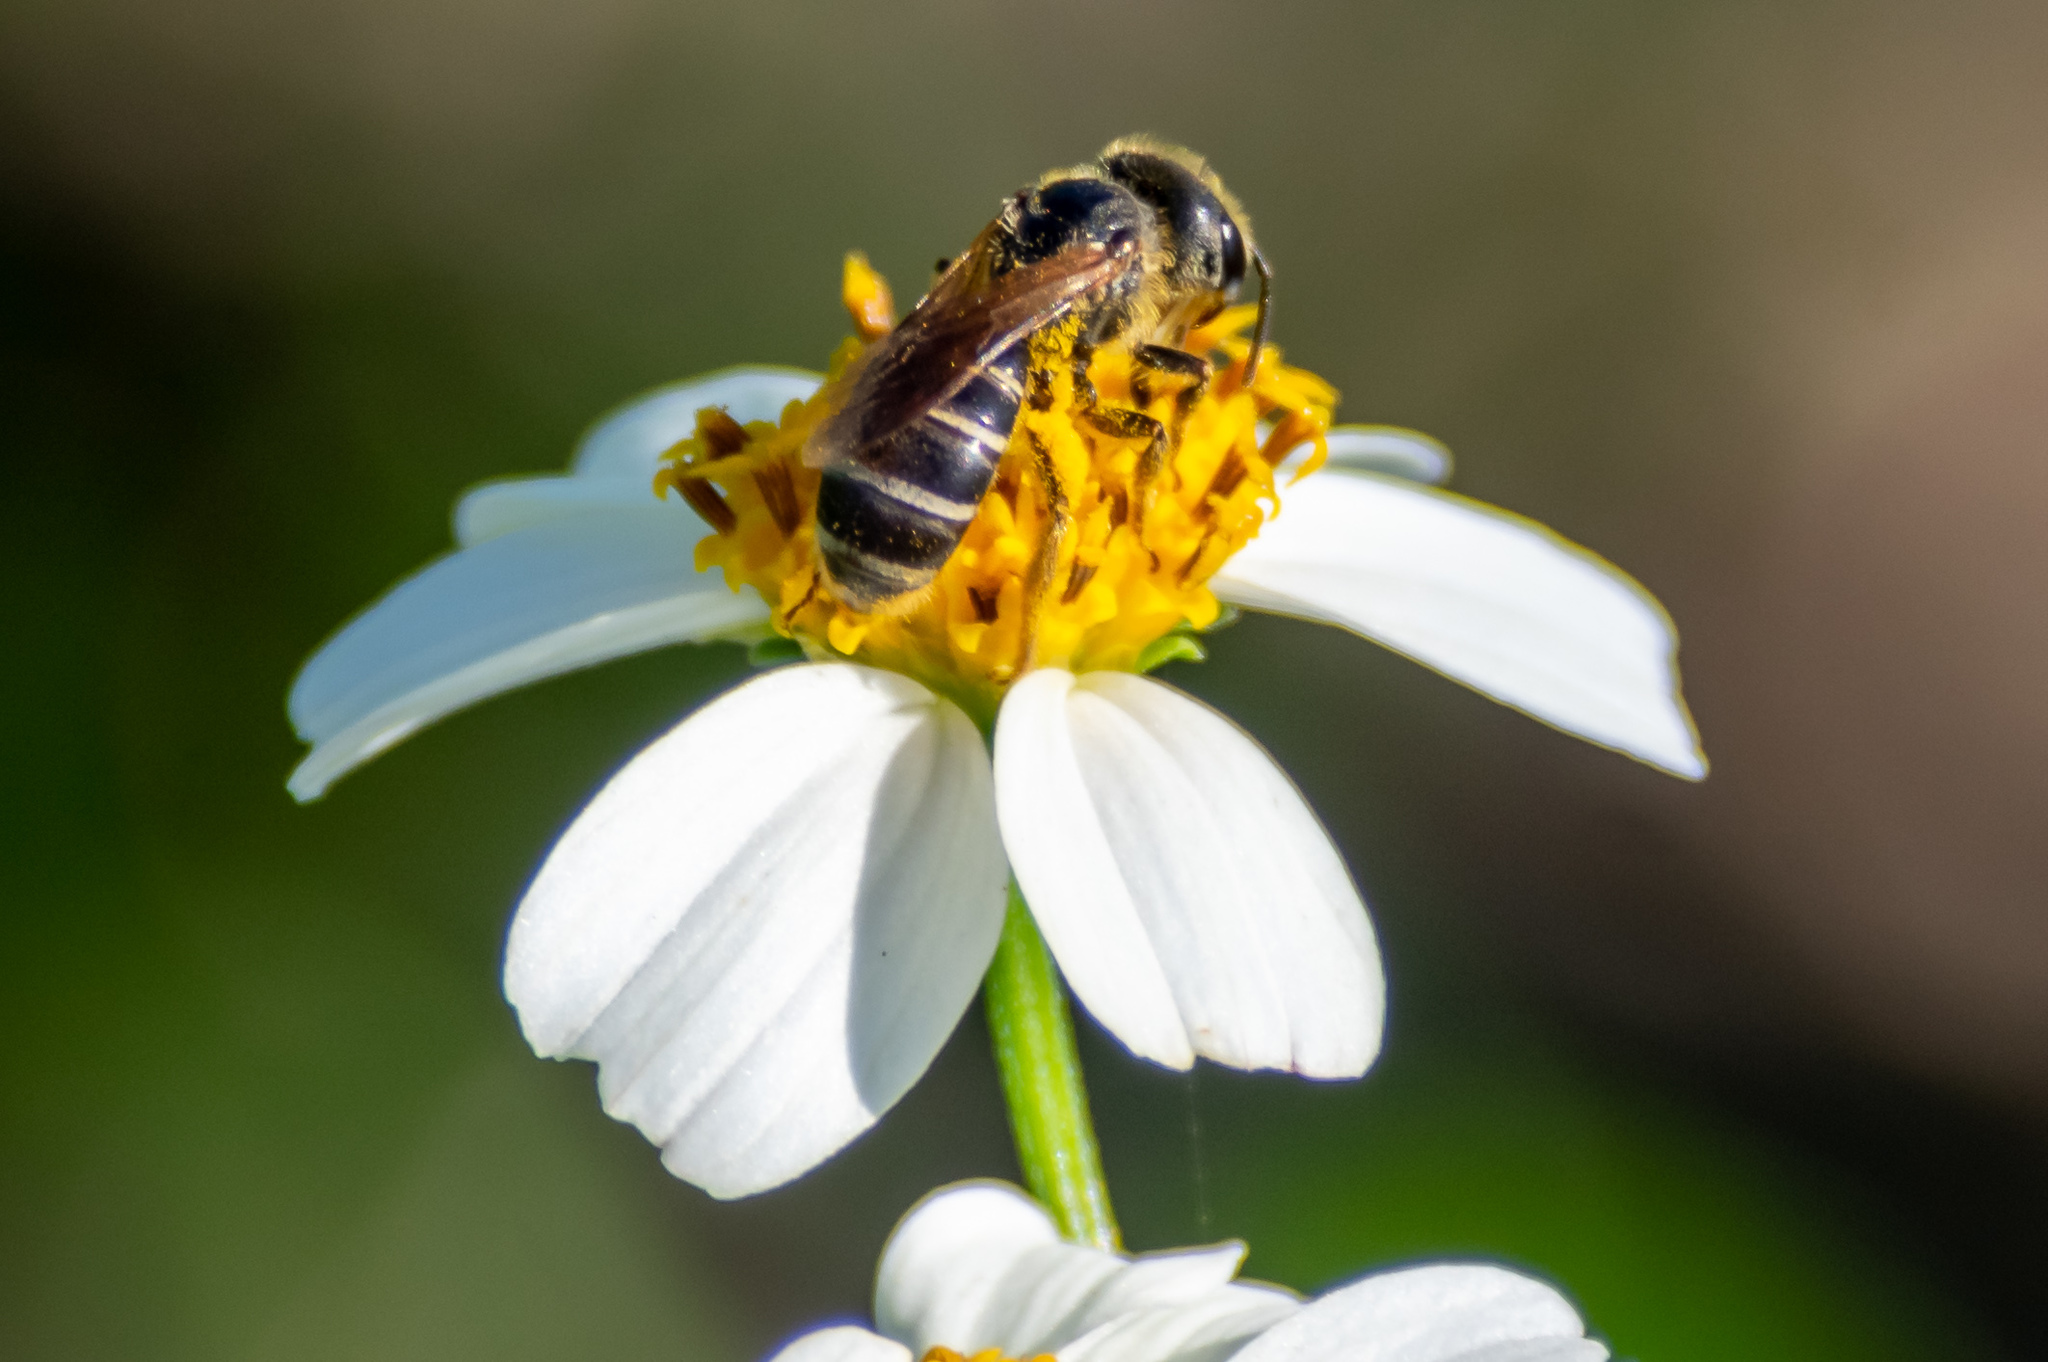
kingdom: Animalia
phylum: Arthropoda
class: Insecta
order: Hymenoptera
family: Halictidae
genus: Halictus
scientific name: Halictus poeyi
